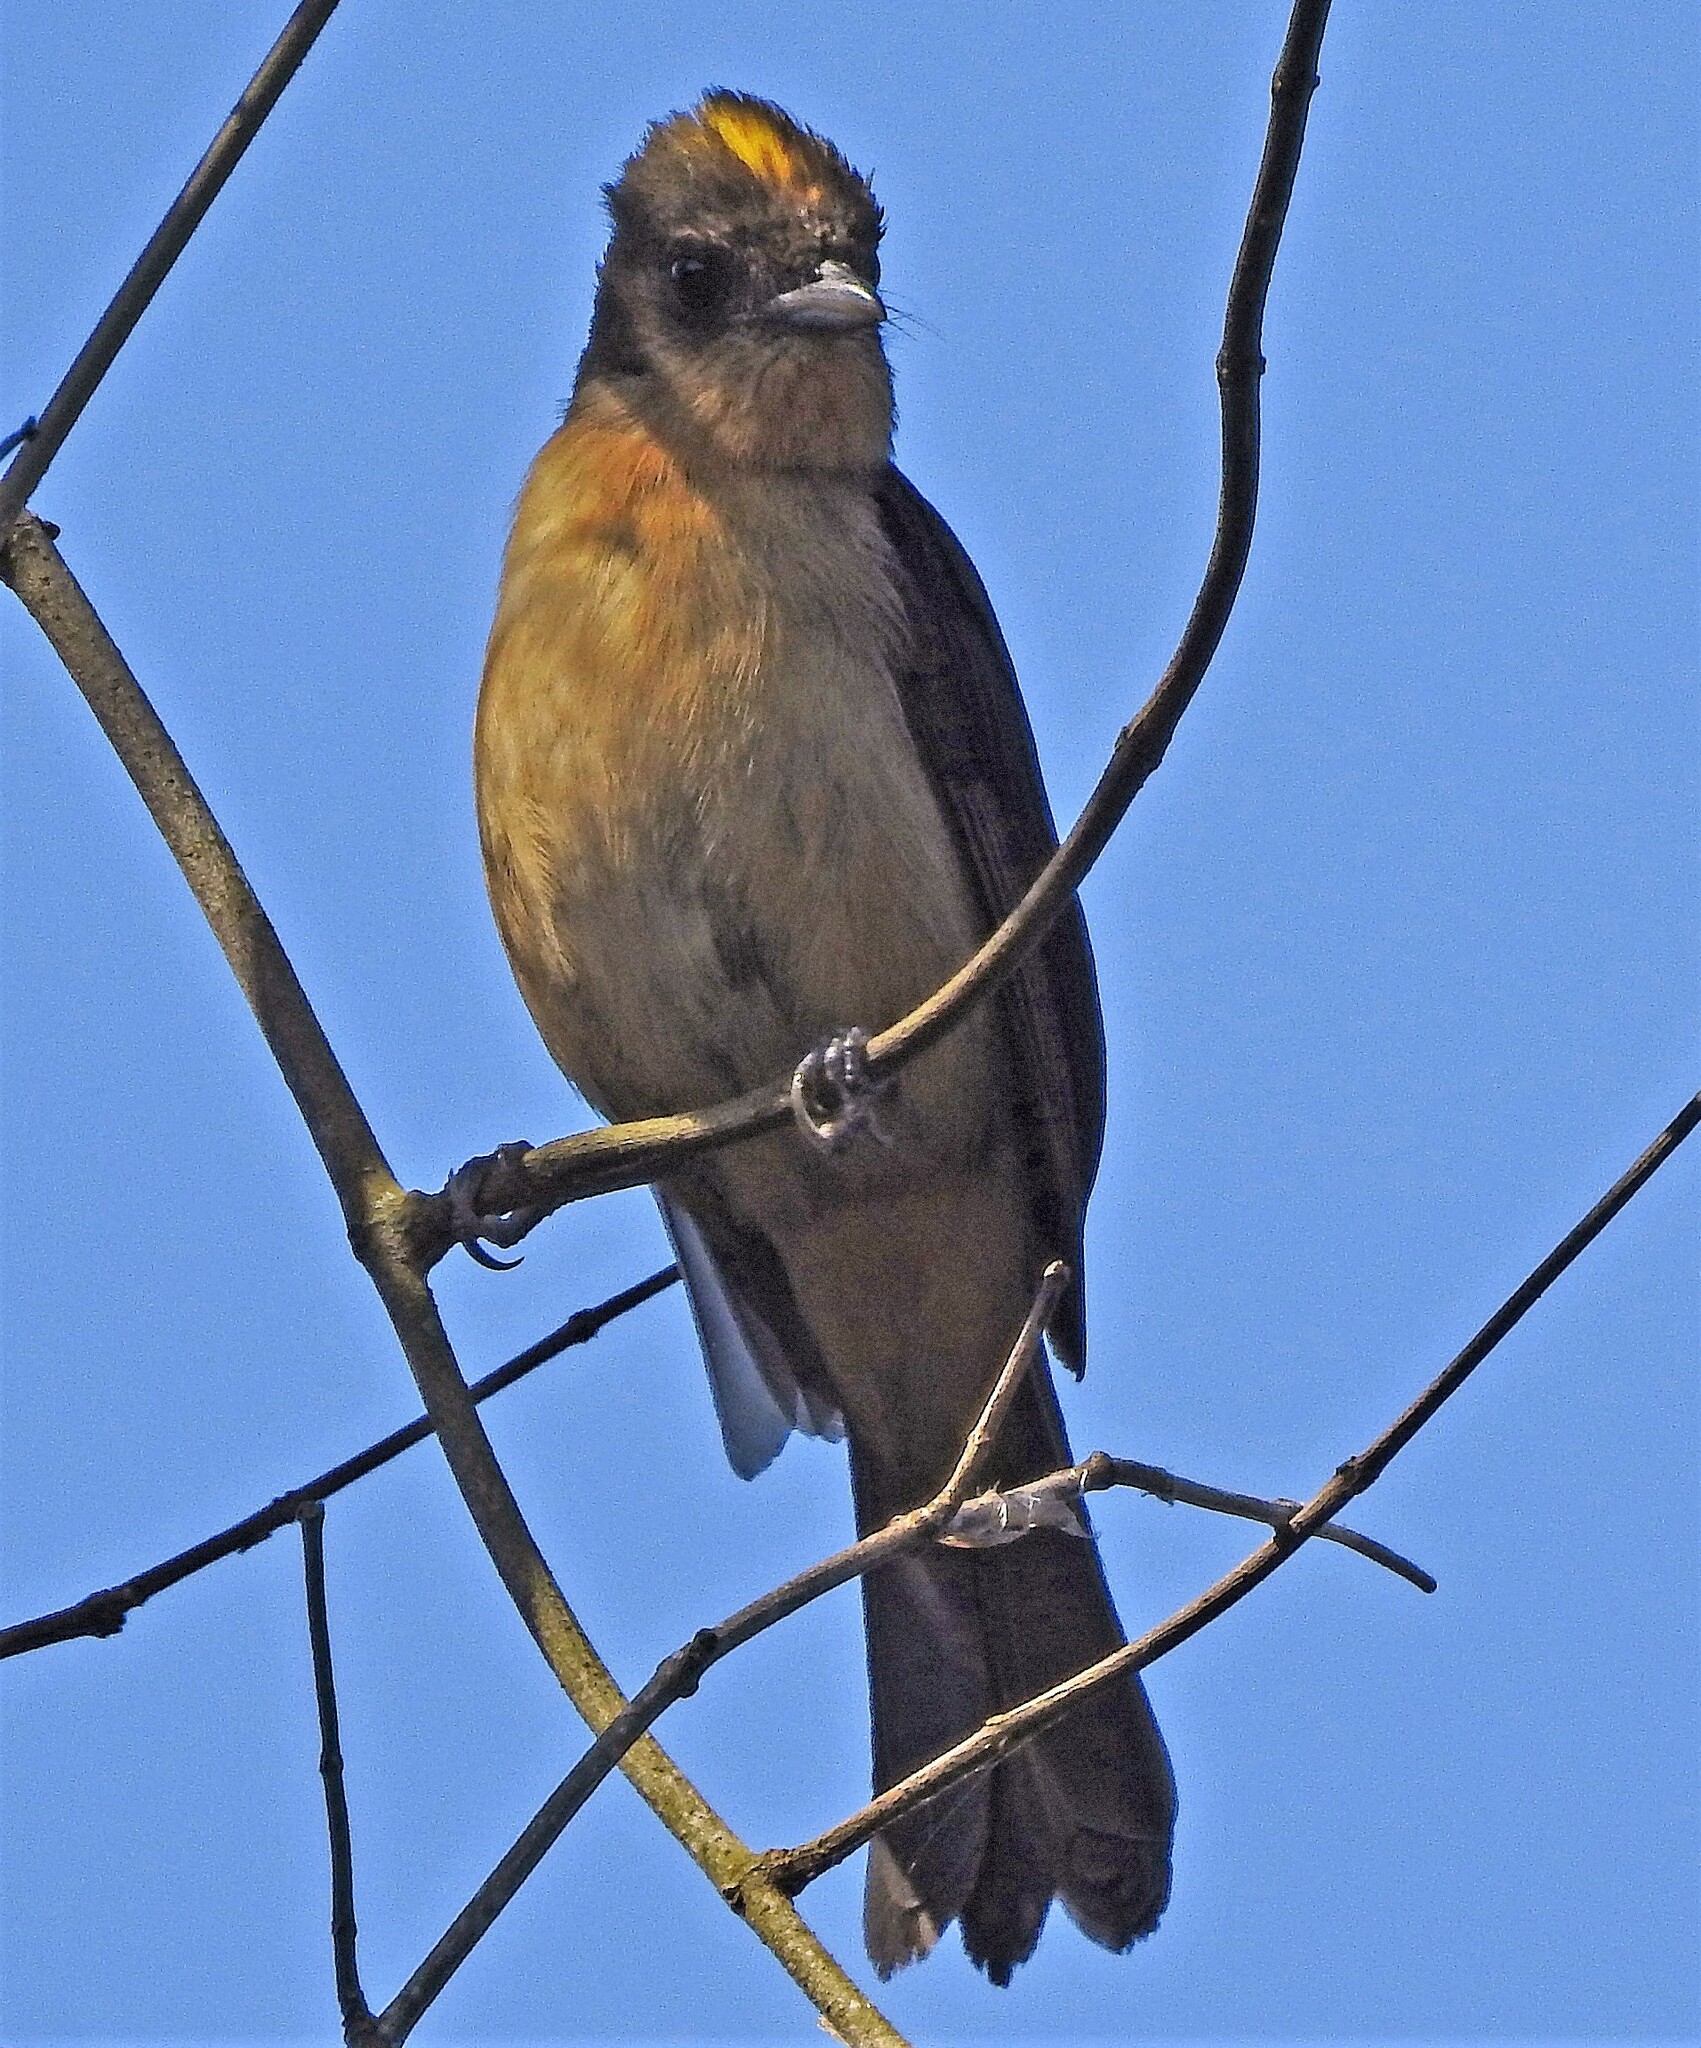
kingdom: Animalia
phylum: Chordata
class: Aves
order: Passeriformes
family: Thraupidae
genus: Trichothraupis
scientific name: Trichothraupis melanops
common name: Black-goggled tanager
